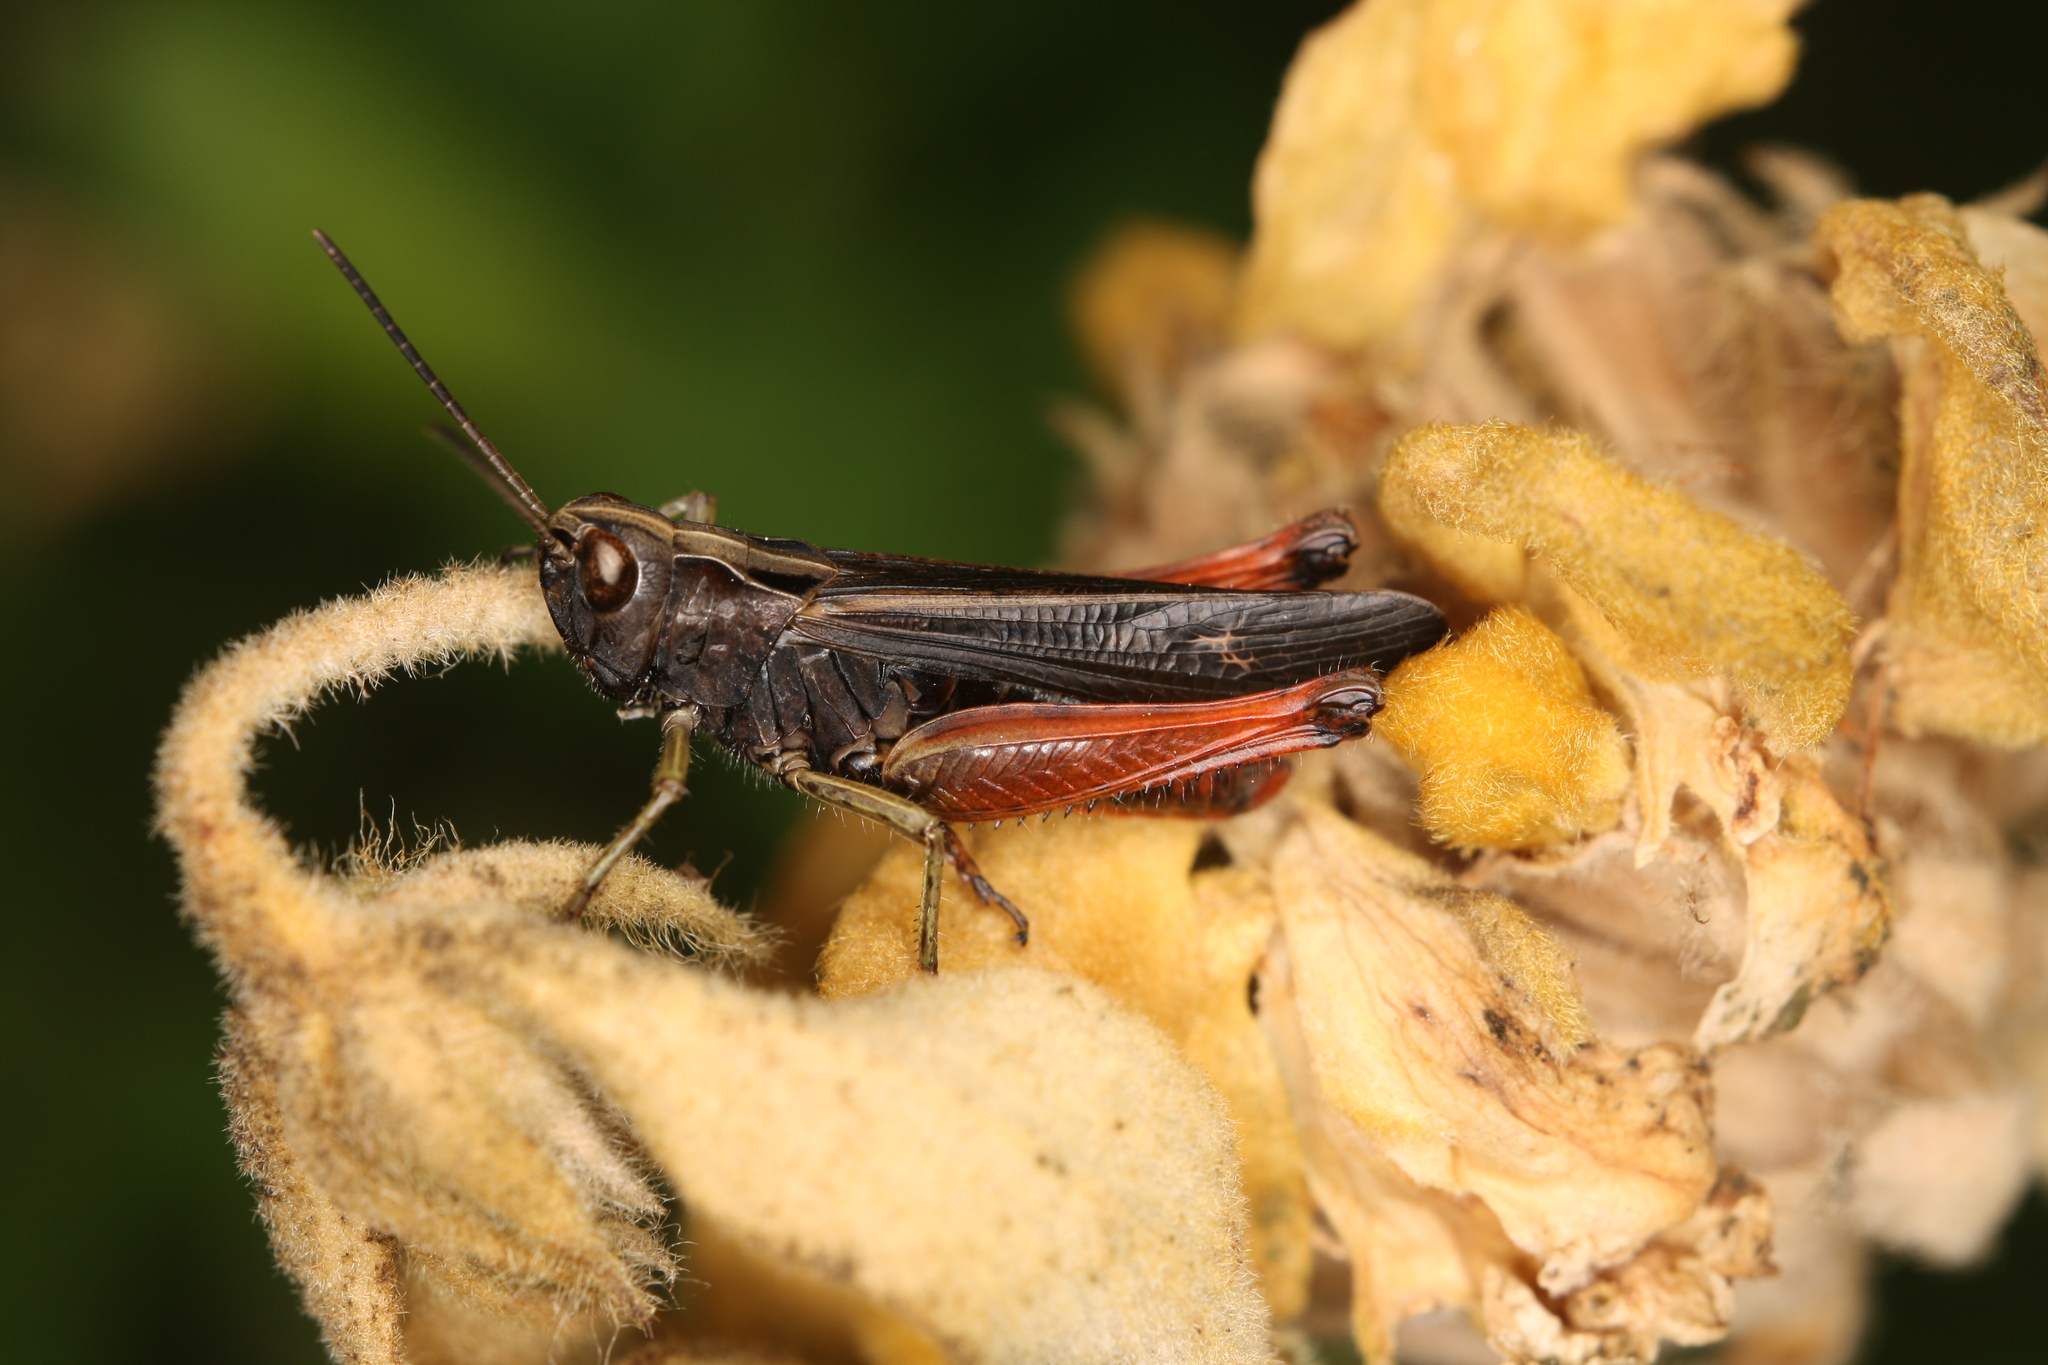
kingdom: Animalia
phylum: Arthropoda
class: Insecta
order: Orthoptera
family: Acrididae
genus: Omocestus
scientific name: Omocestus rufipes
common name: Woodland grasshopper
